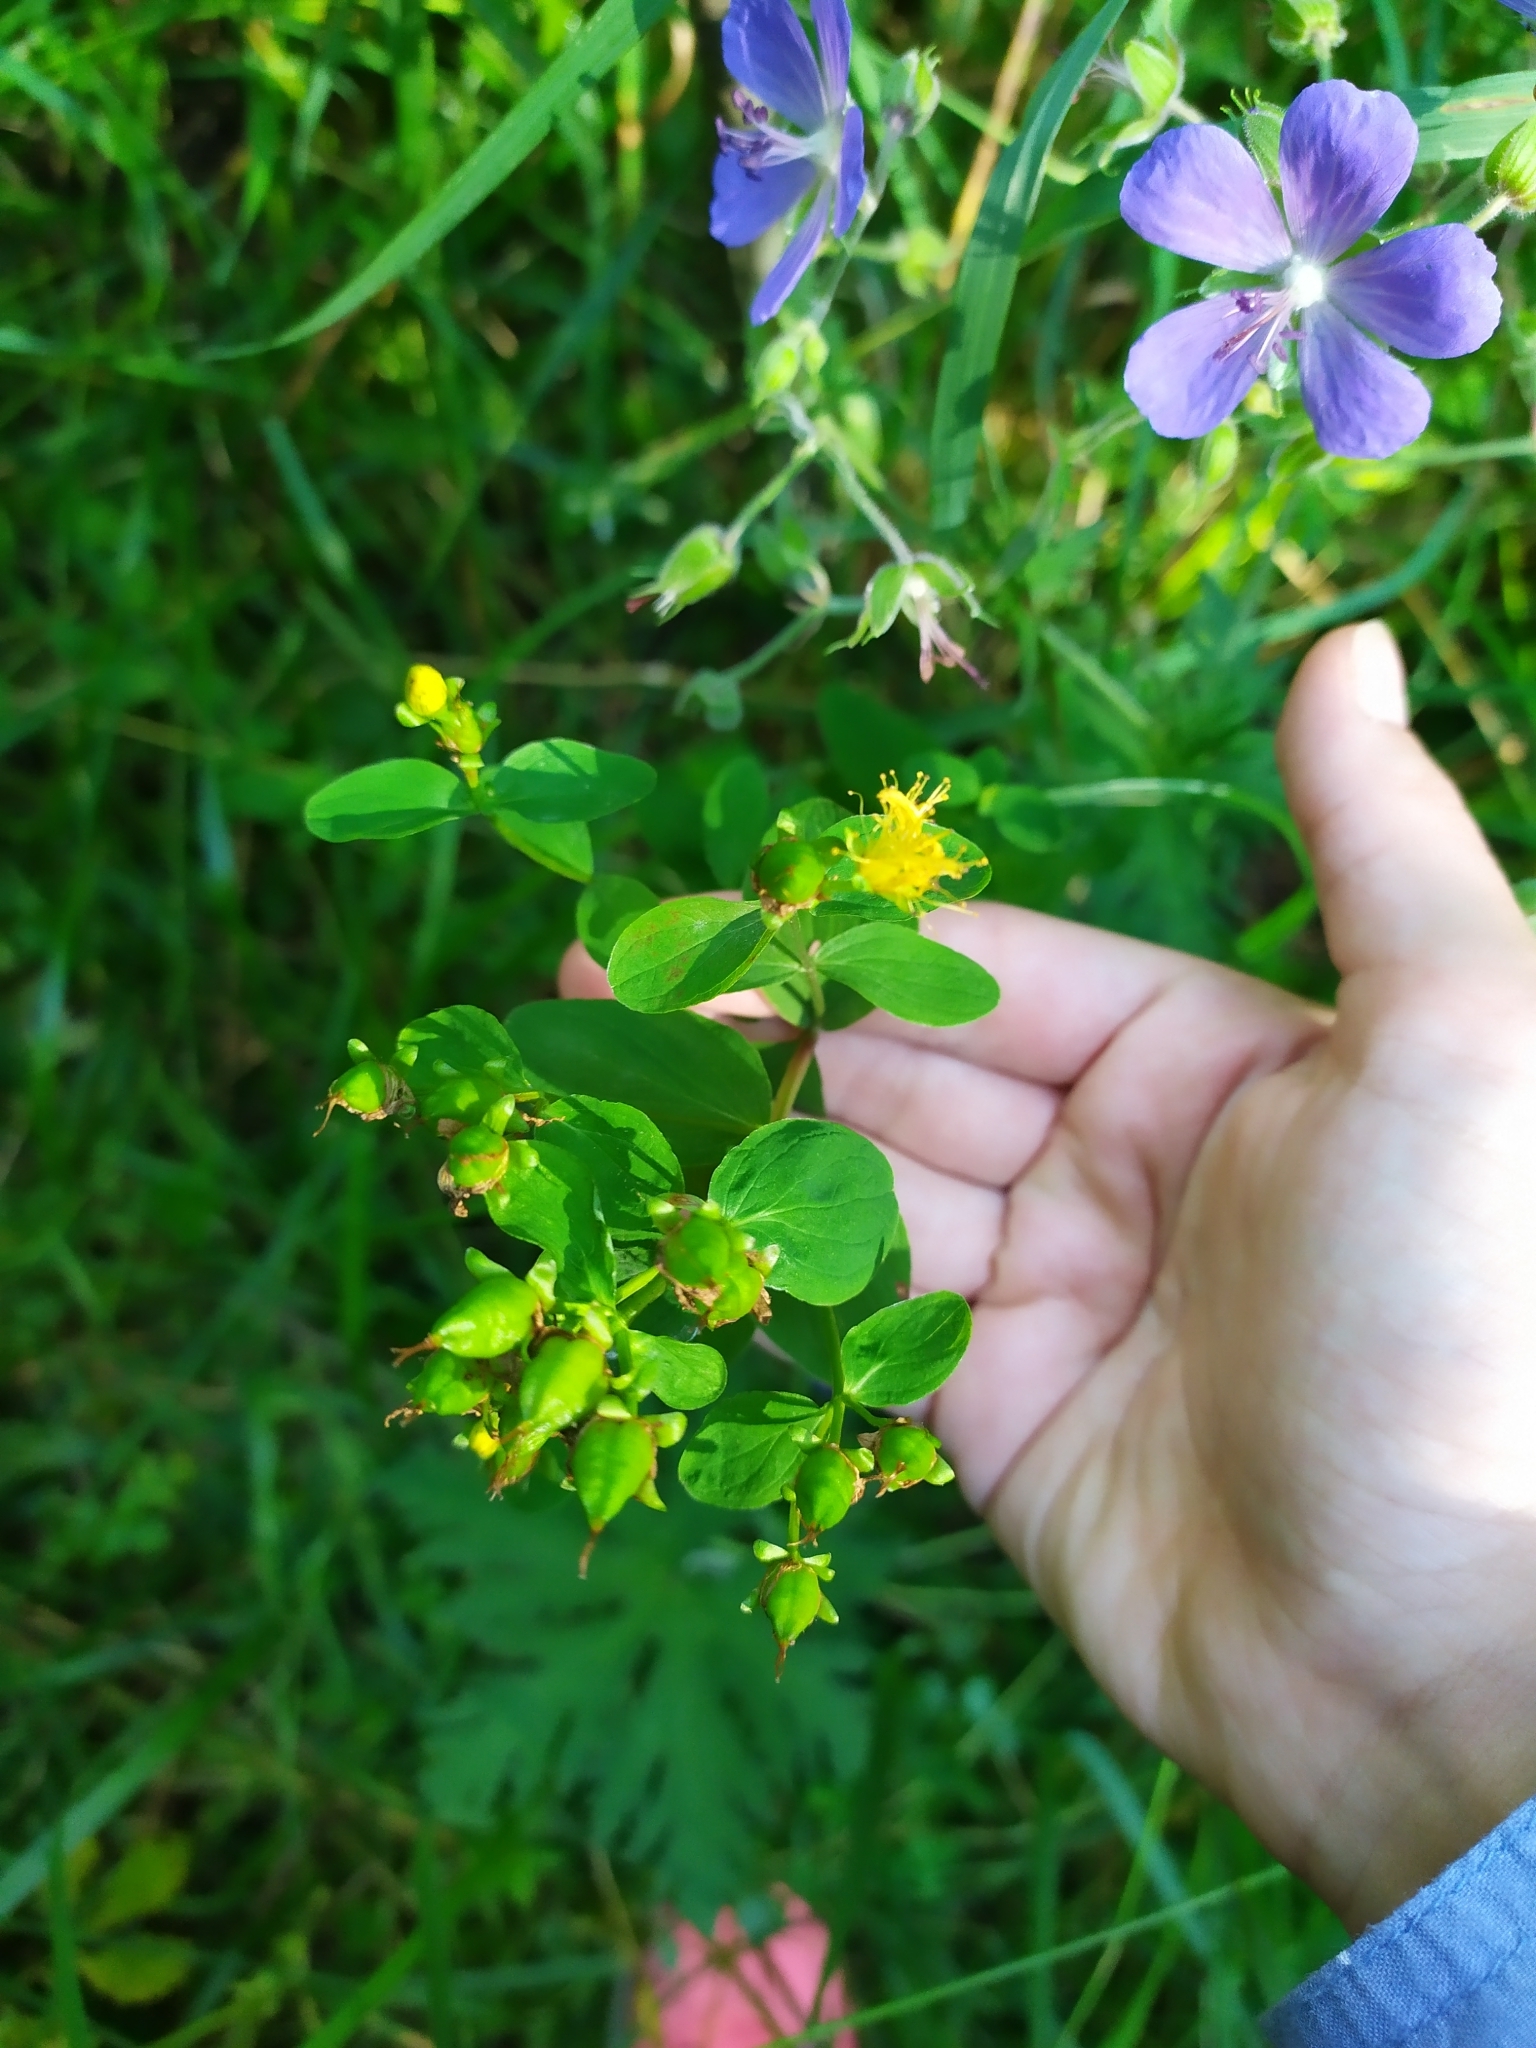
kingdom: Plantae
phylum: Tracheophyta
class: Magnoliopsida
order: Malpighiales
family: Hypericaceae
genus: Hypericum
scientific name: Hypericum maculatum
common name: Imperforate st. john's-wort
